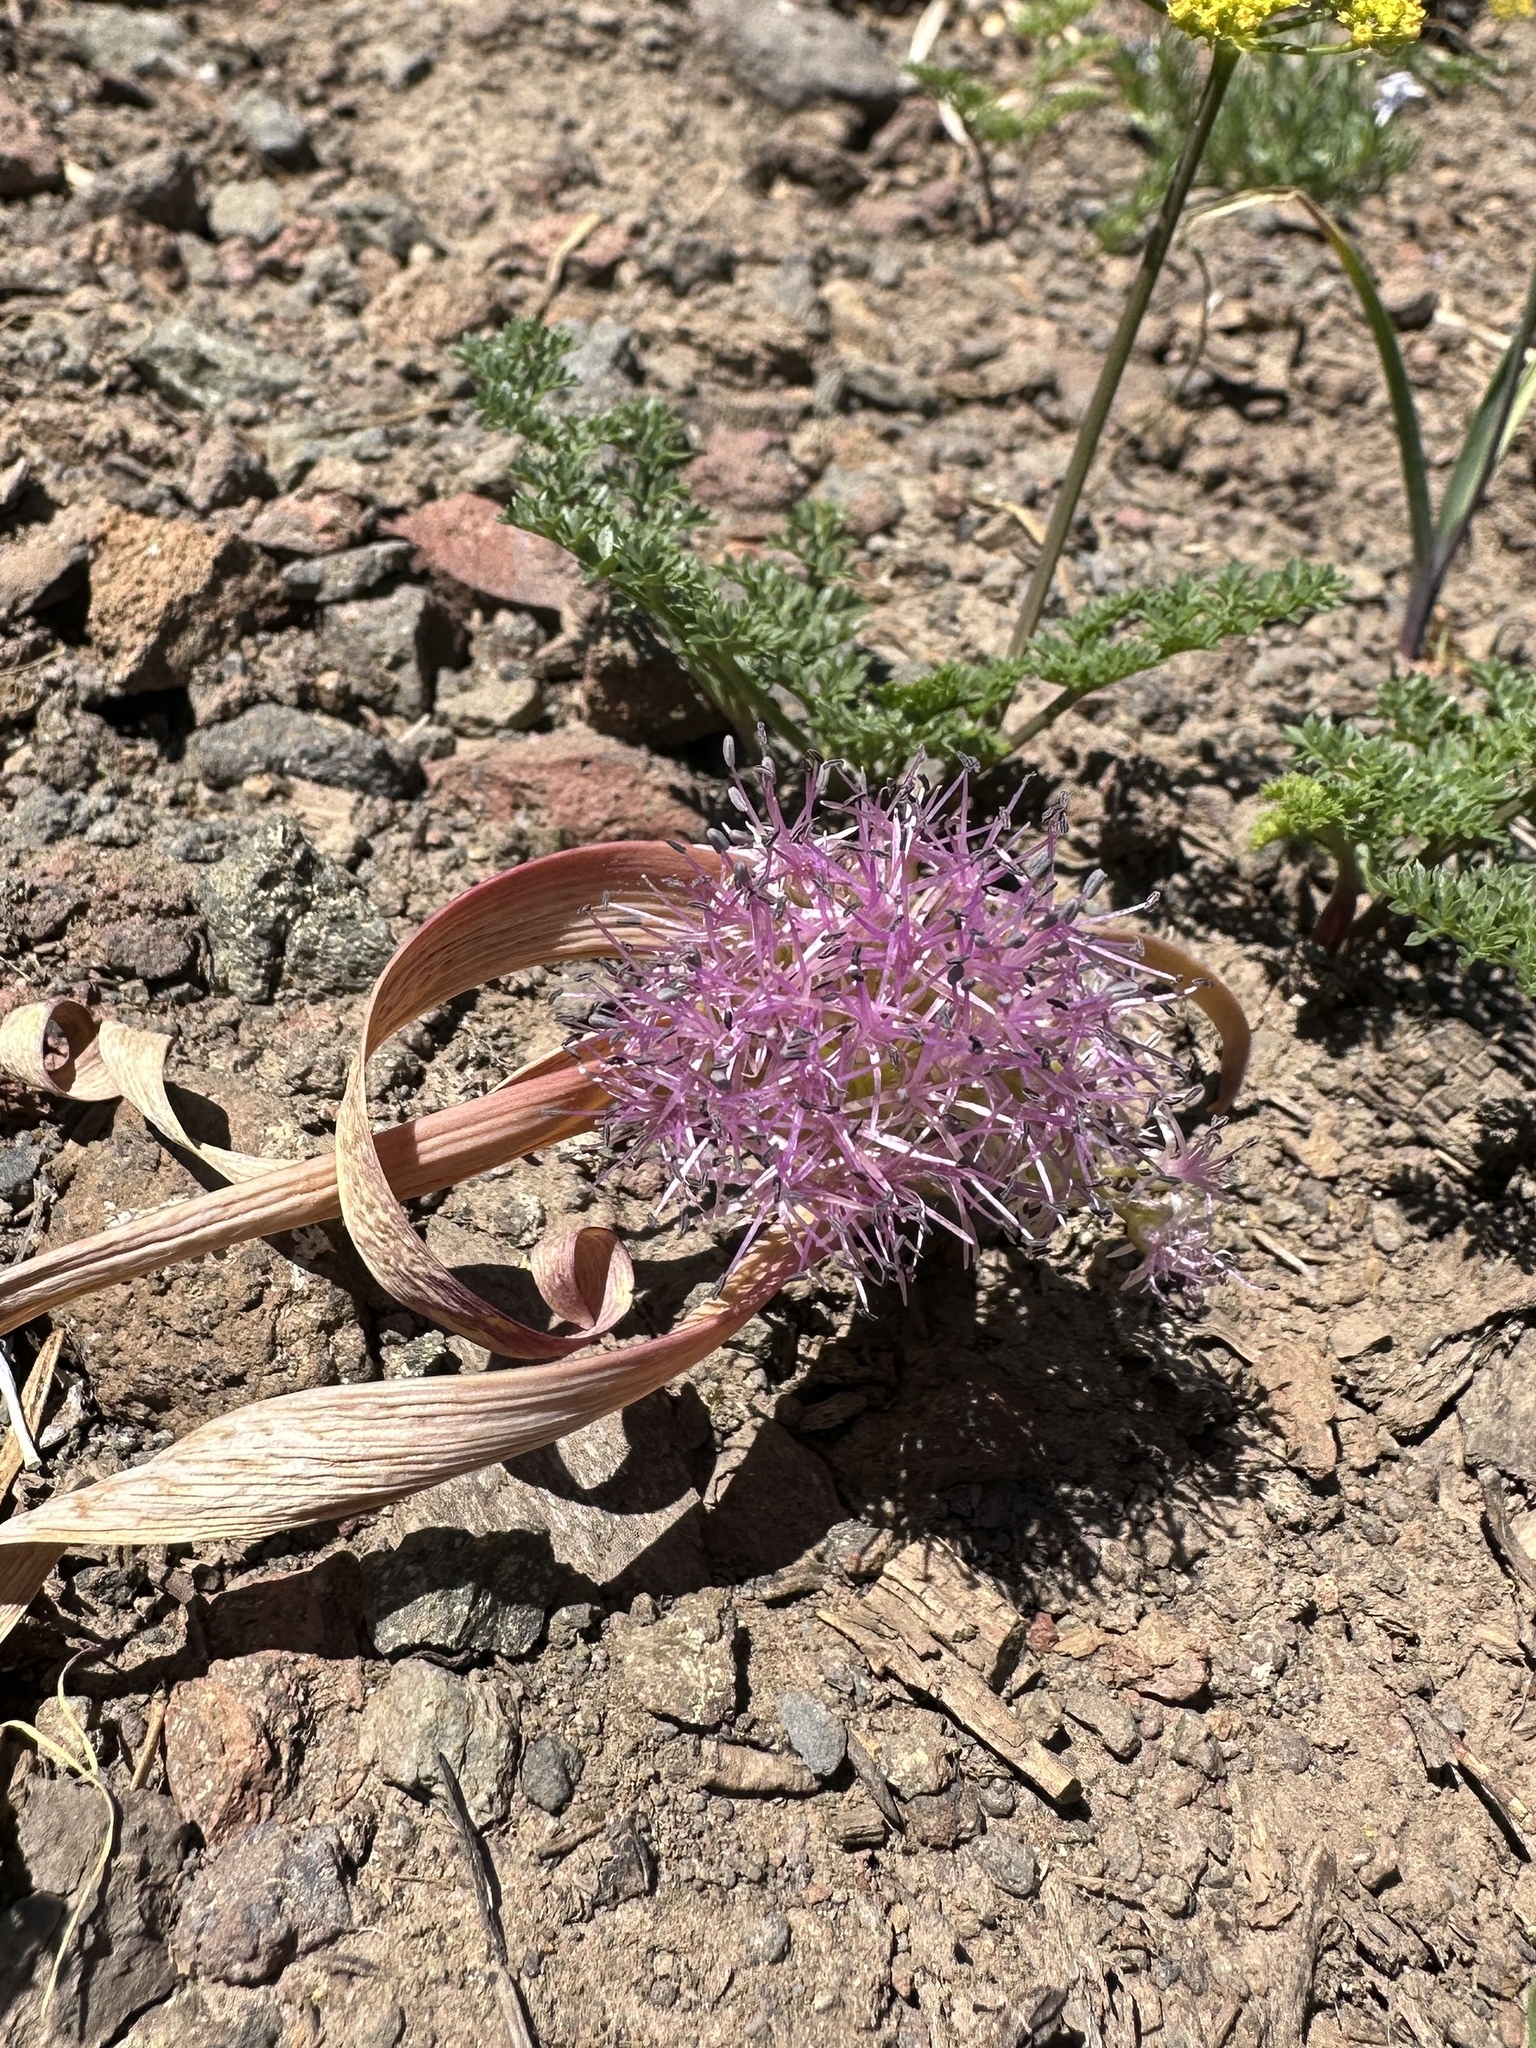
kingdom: Plantae
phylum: Tracheophyta
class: Liliopsida
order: Asparagales
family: Amaryllidaceae
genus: Allium
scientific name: Allium platycaule
